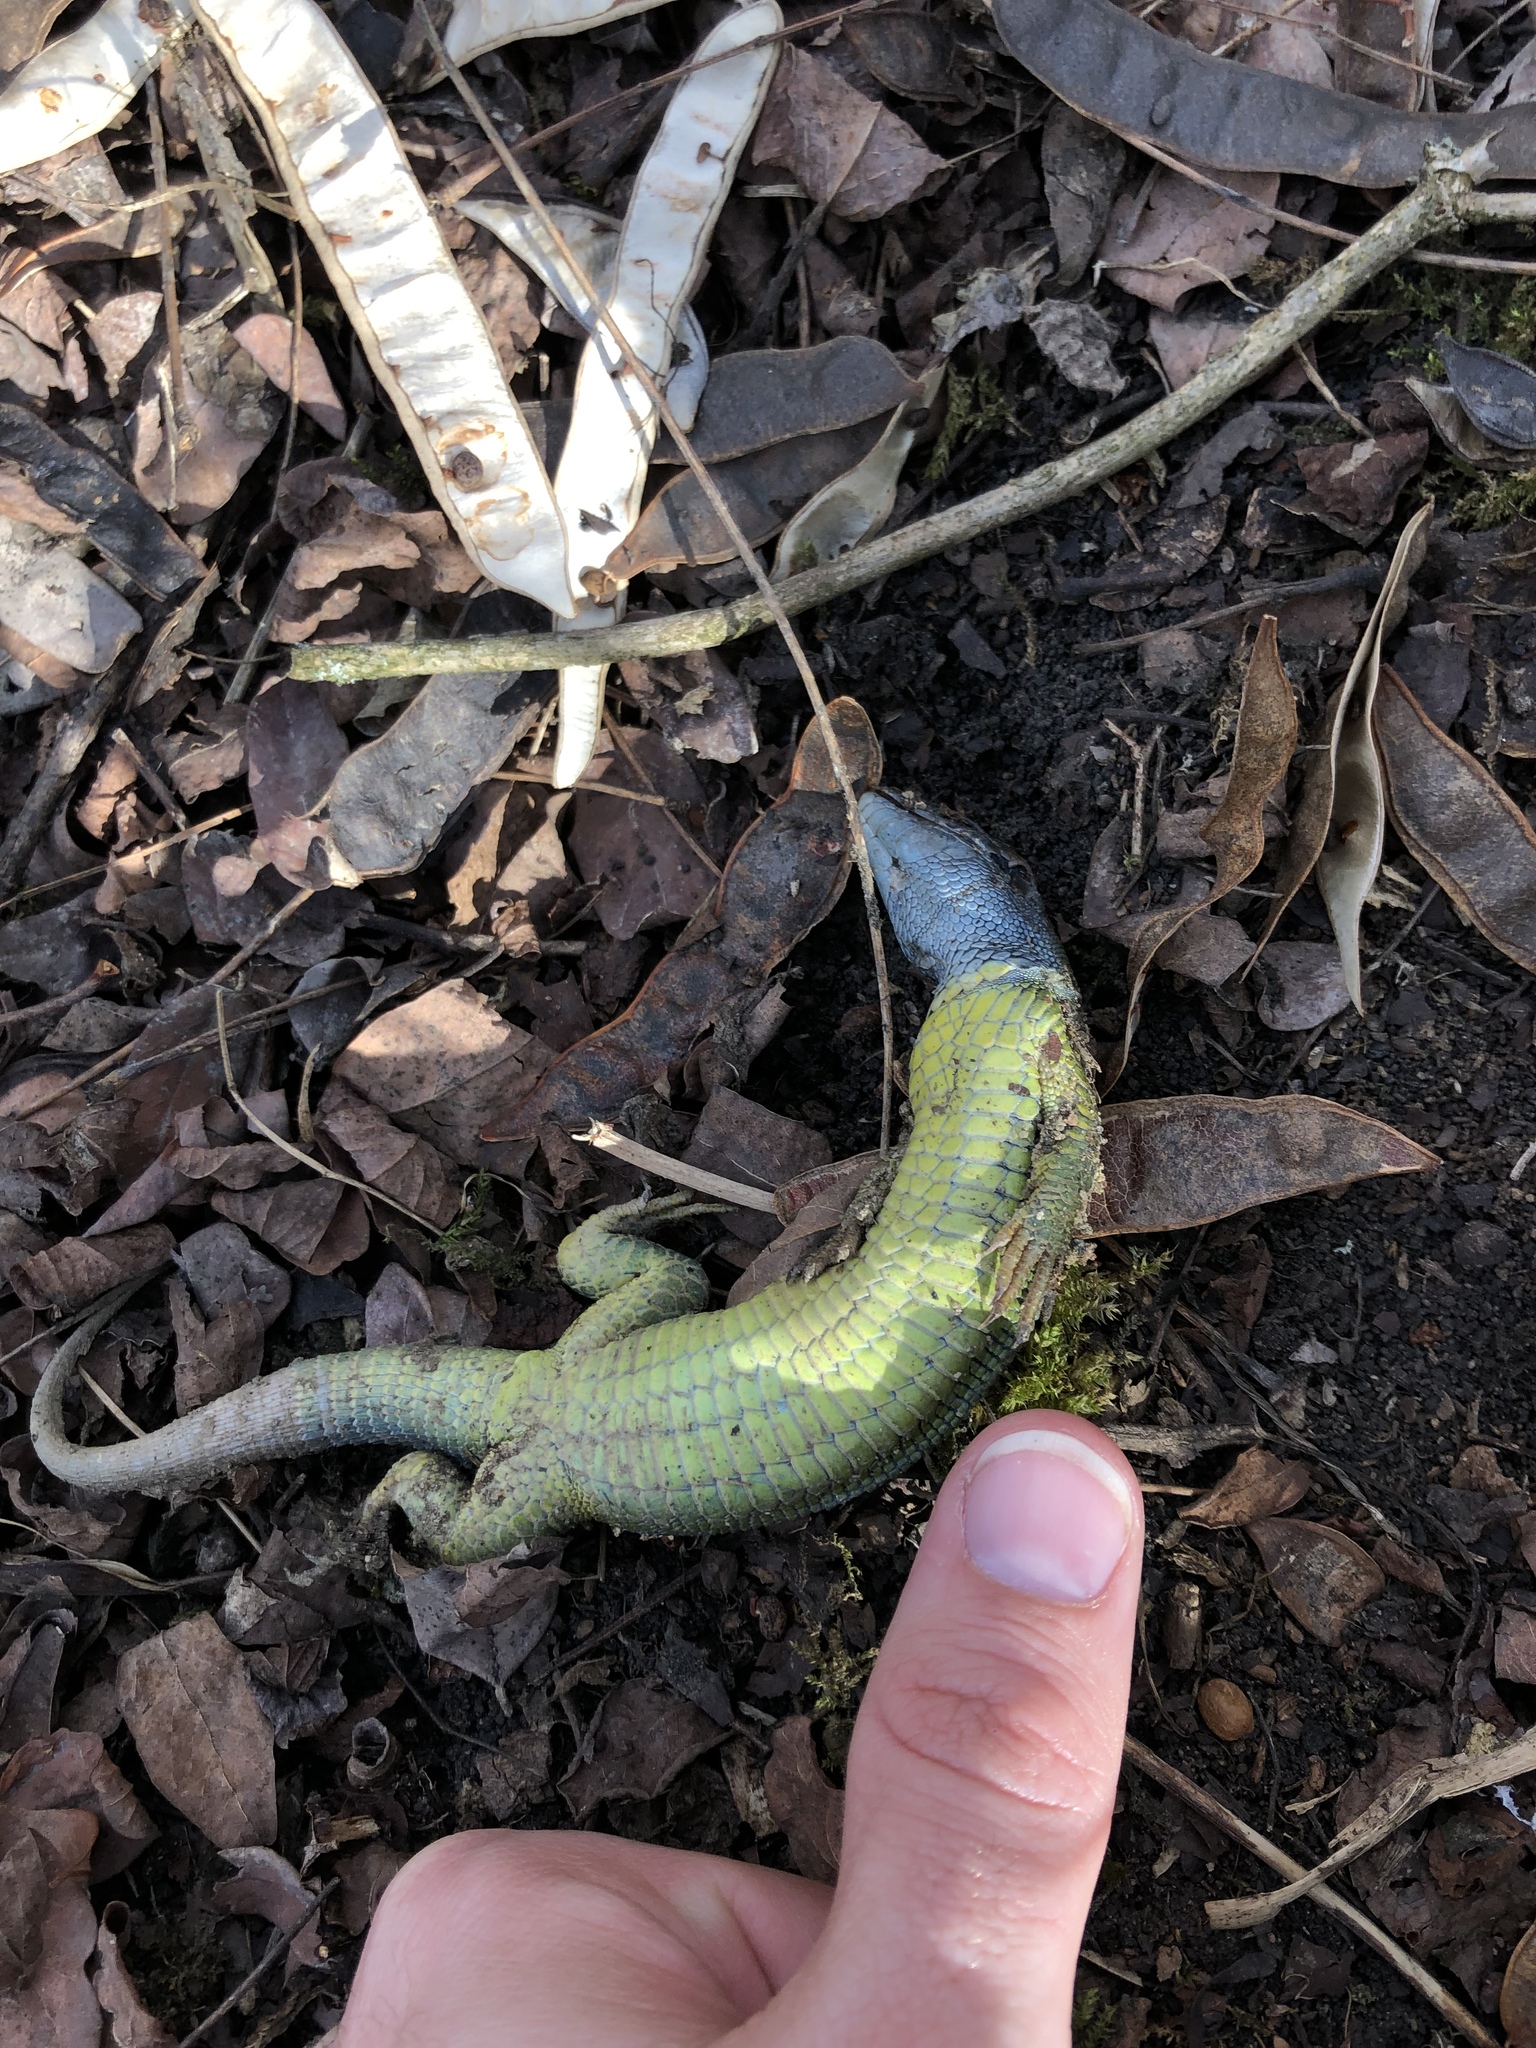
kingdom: Animalia
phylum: Chordata
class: Squamata
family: Lacertidae
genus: Lacerta
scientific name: Lacerta viridis
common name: European green lizard
